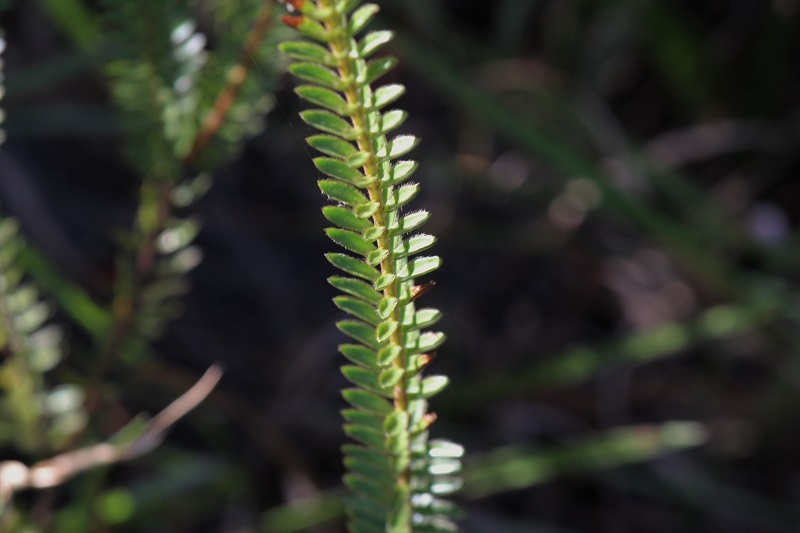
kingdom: Plantae
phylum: Tracheophyta
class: Magnoliopsida
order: Malvales
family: Thymelaeaceae
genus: Struthiola
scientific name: Struthiola argentea
